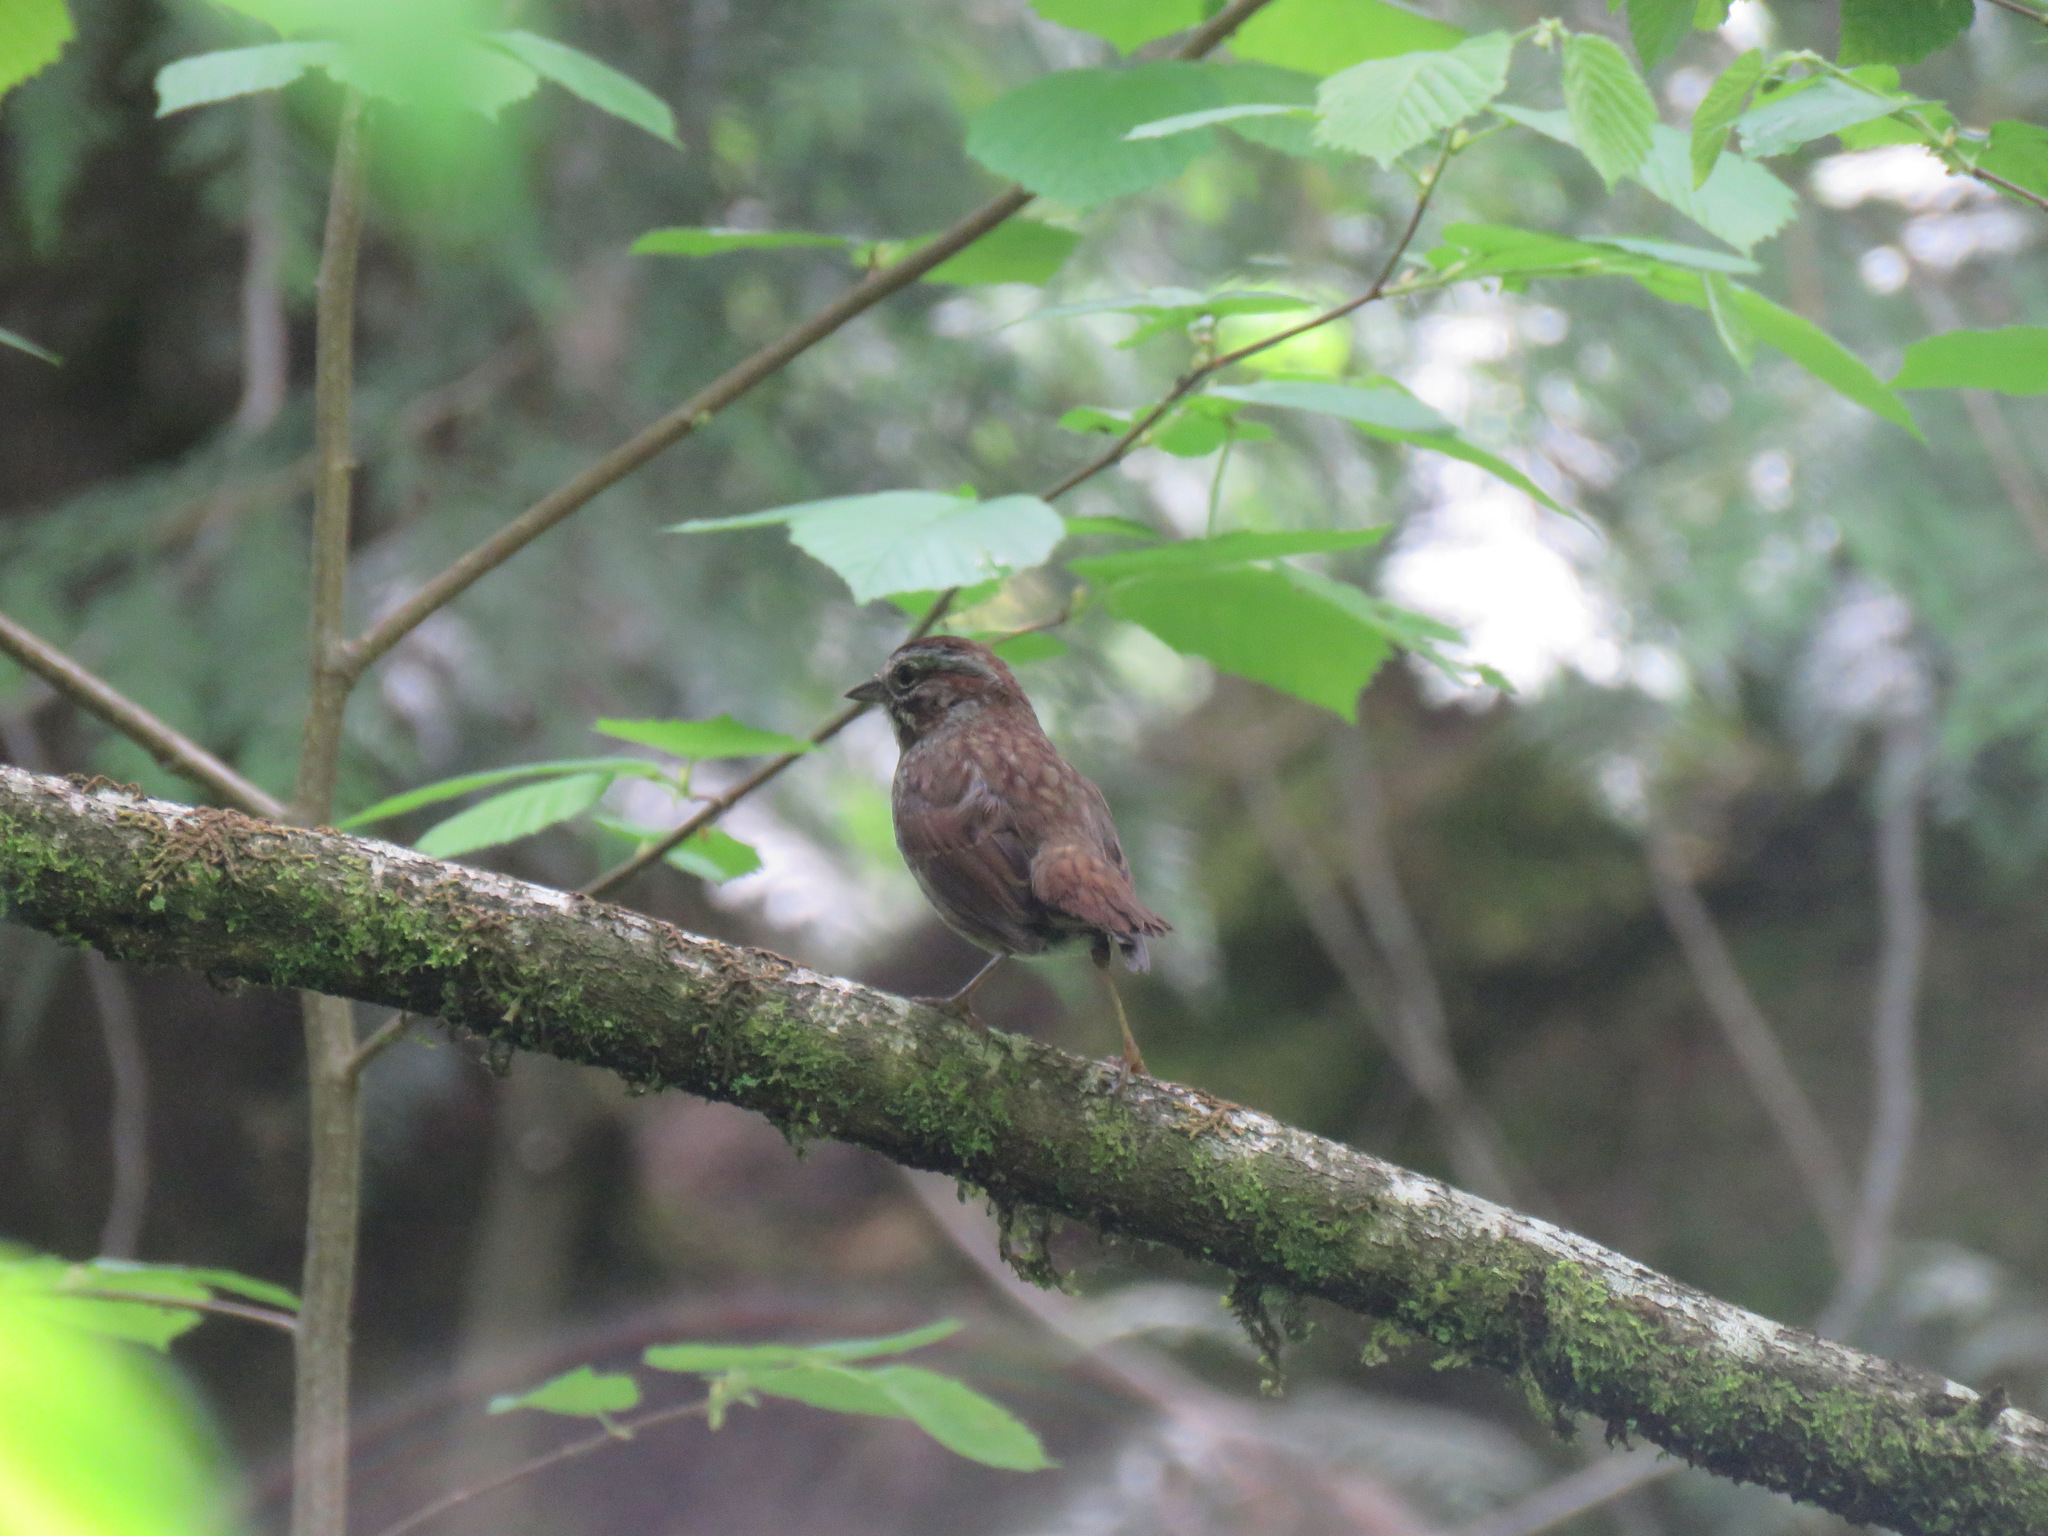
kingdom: Animalia
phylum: Chordata
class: Aves
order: Passeriformes
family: Passerellidae
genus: Melospiza
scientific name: Melospiza melodia
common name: Song sparrow
